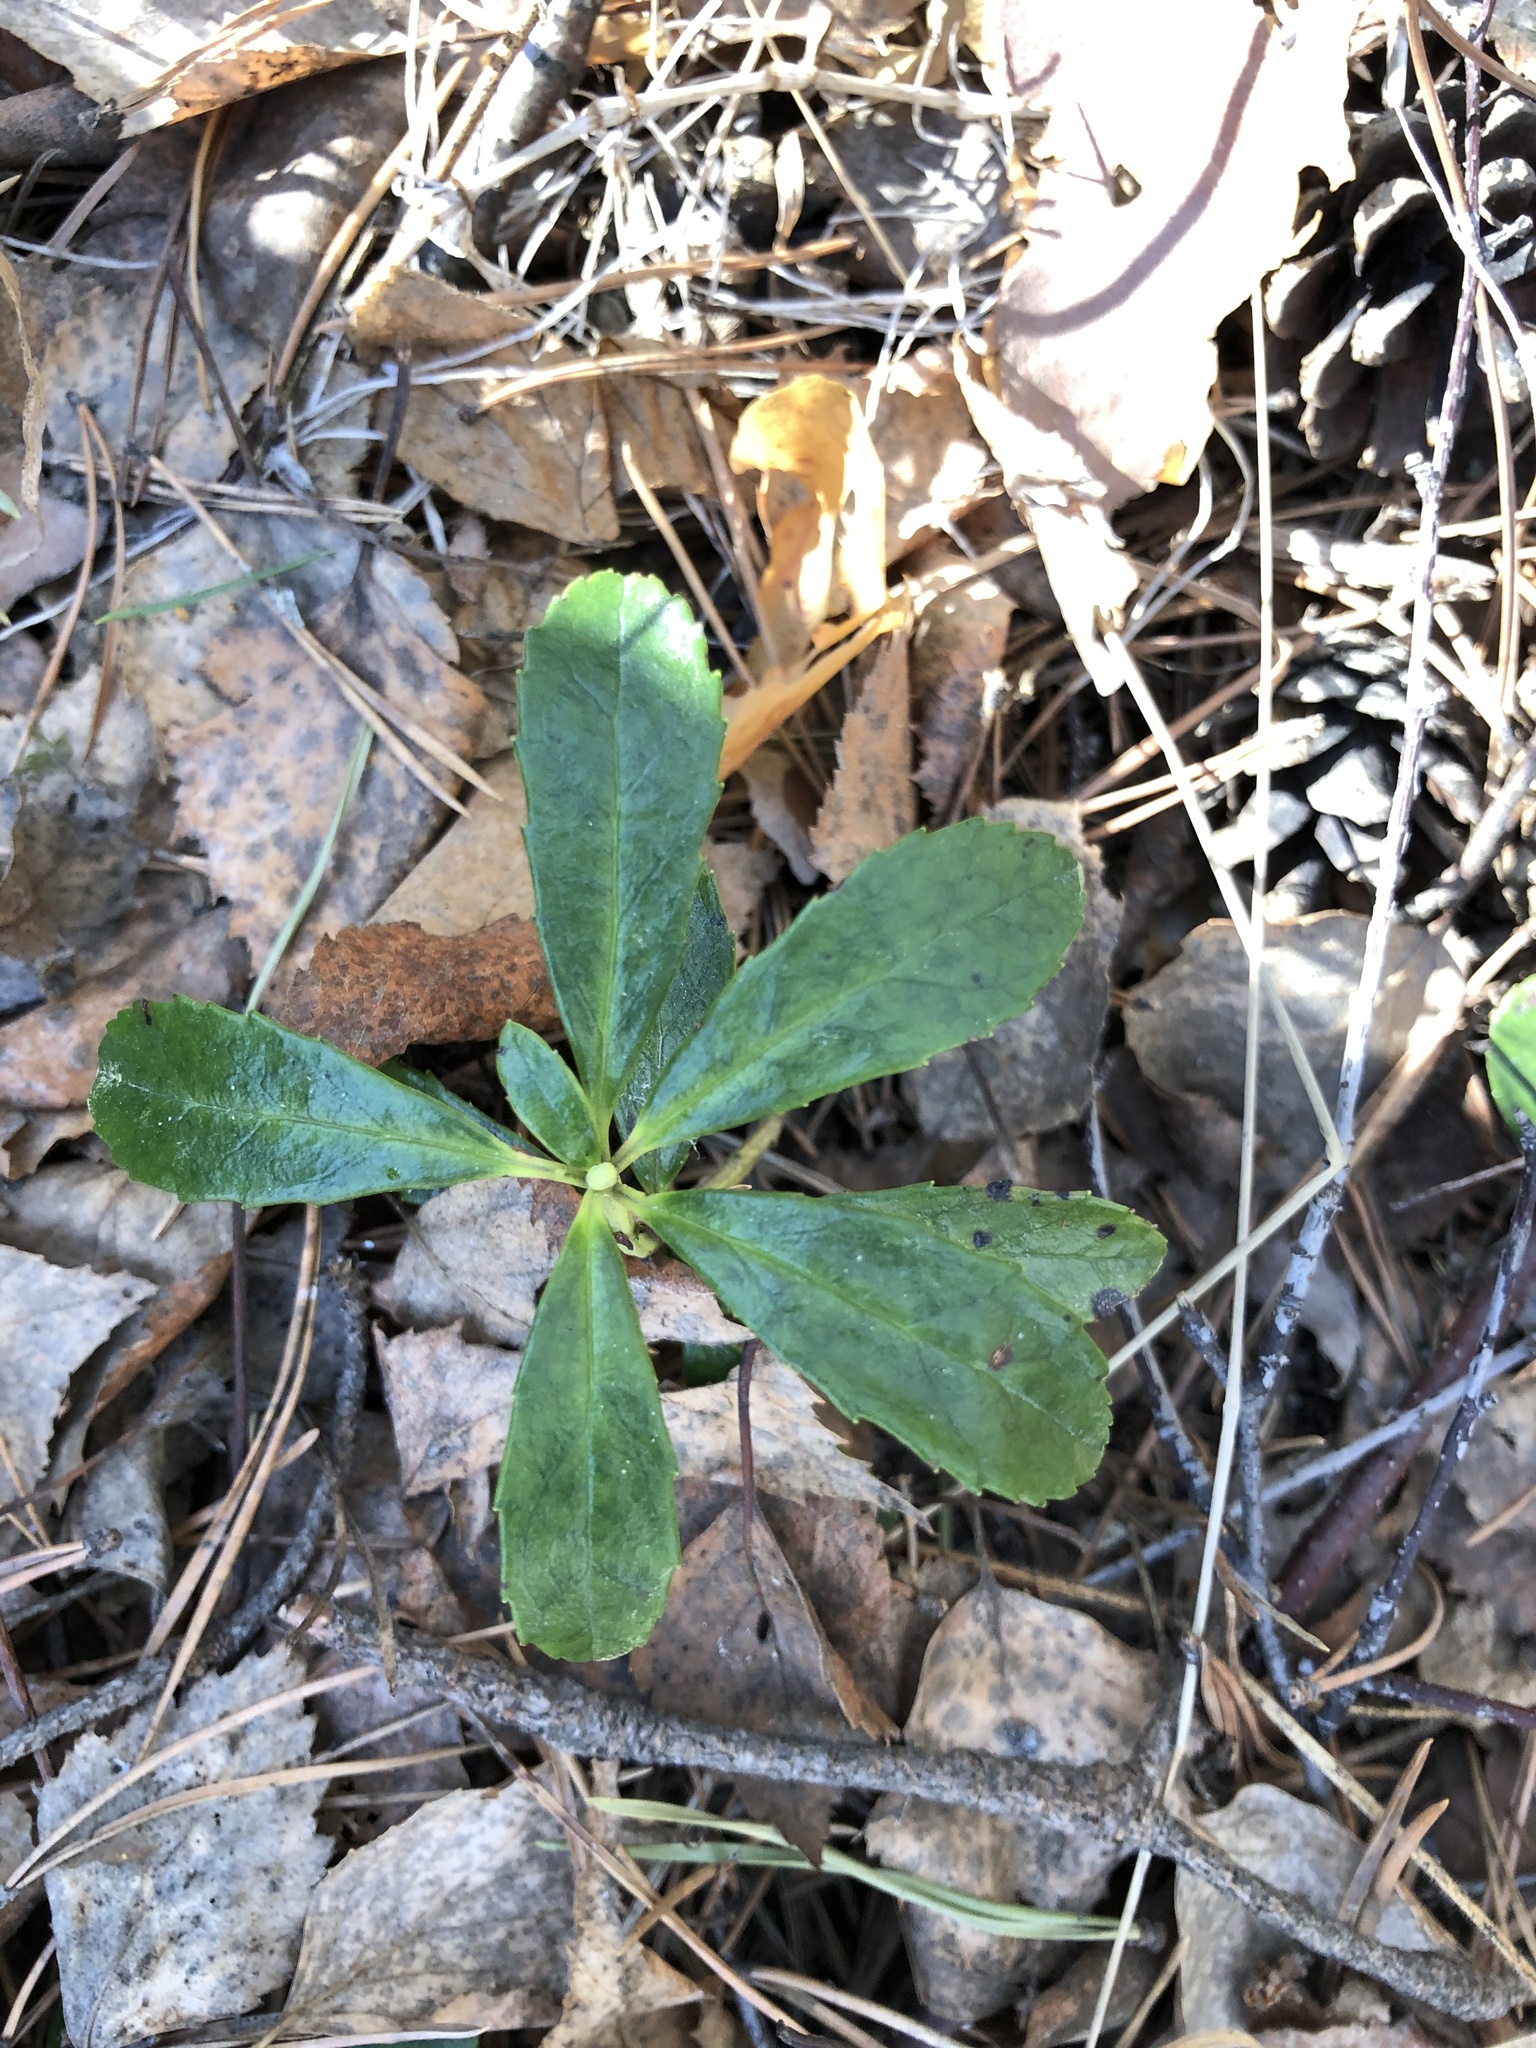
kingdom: Plantae
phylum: Tracheophyta
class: Magnoliopsida
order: Ericales
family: Ericaceae
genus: Chimaphila
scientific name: Chimaphila umbellata
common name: Pipsissewa
